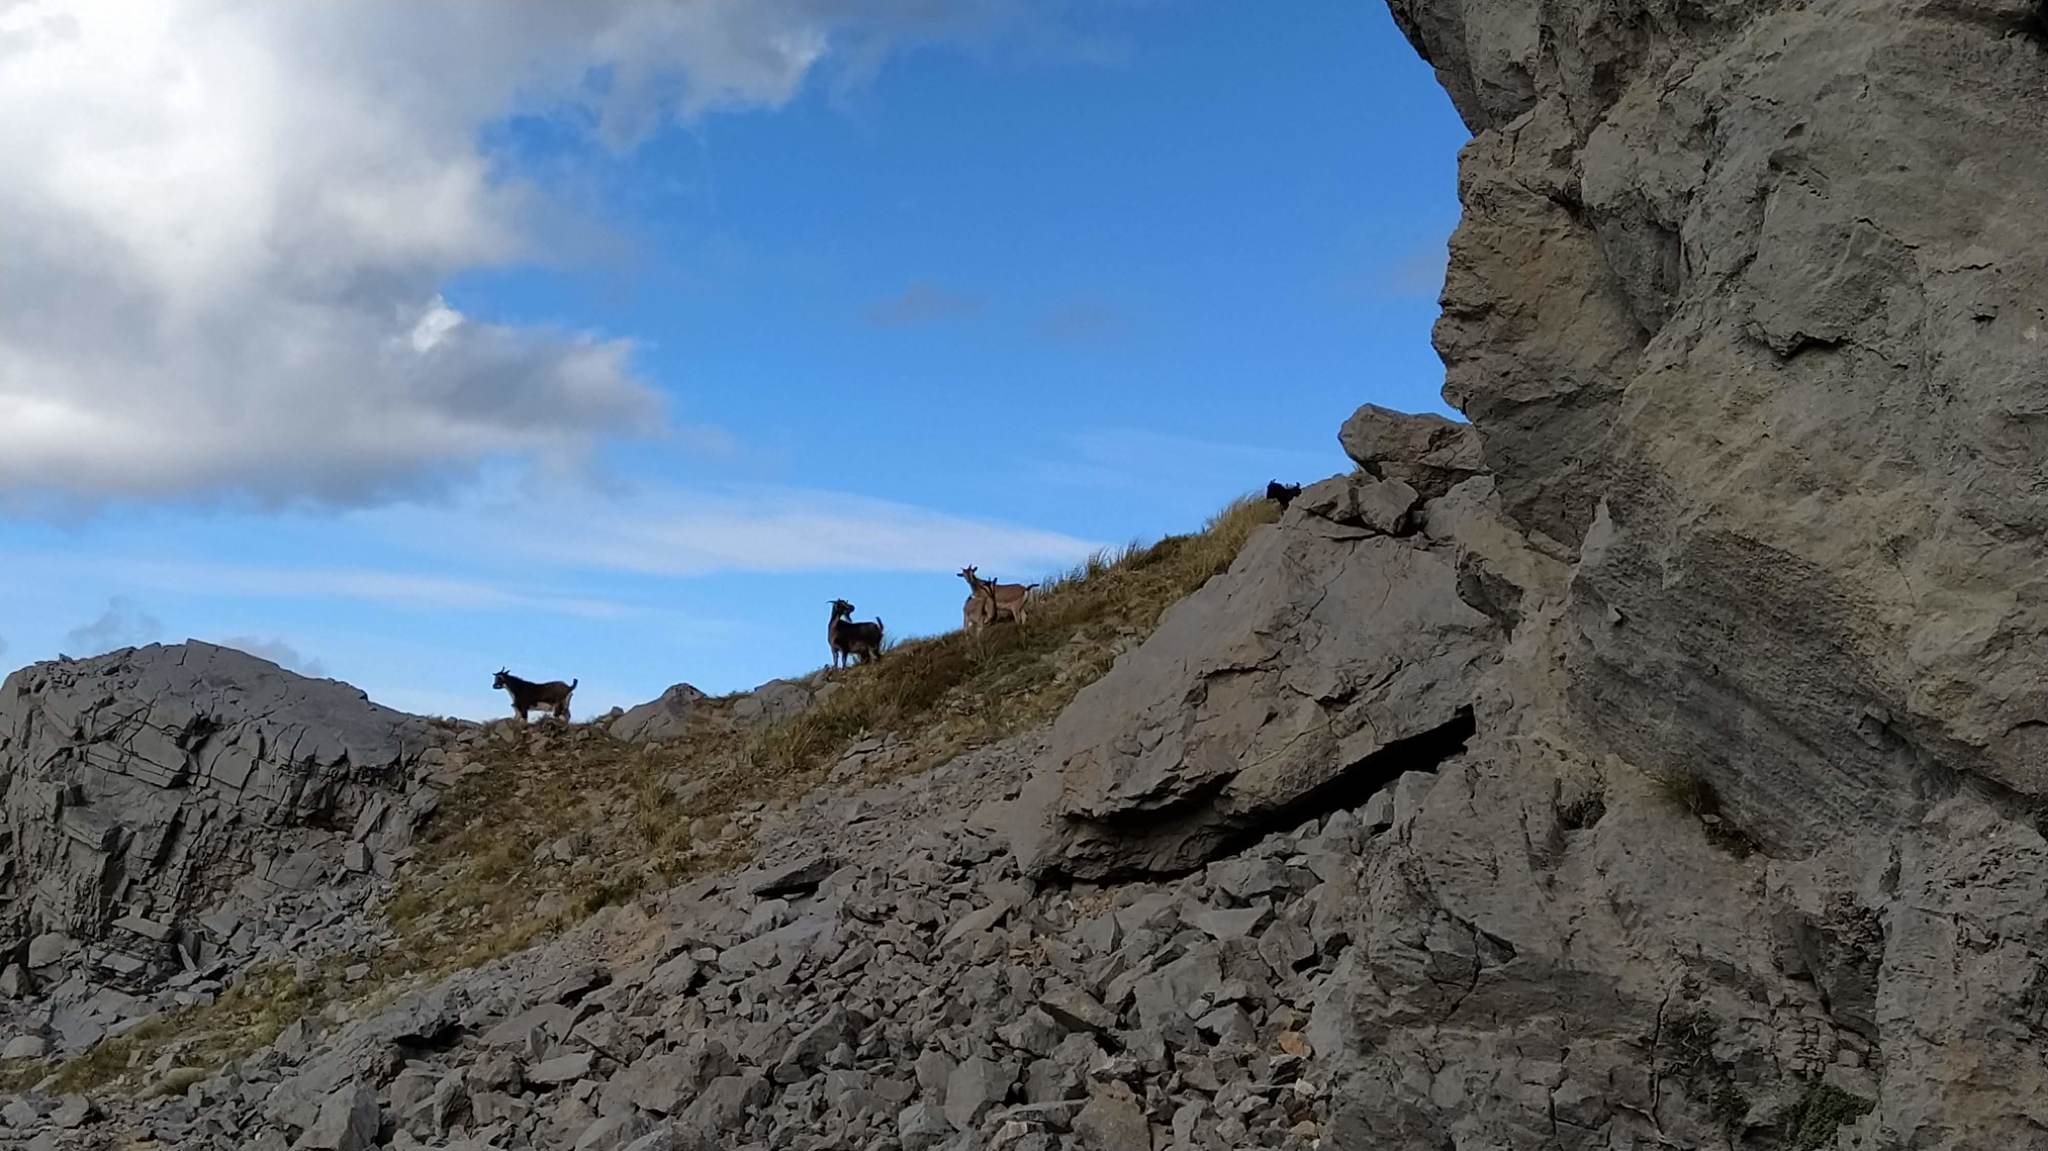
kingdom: Animalia
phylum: Chordata
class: Mammalia
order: Artiodactyla
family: Bovidae
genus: Capra
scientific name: Capra hircus
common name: Domestic goat
